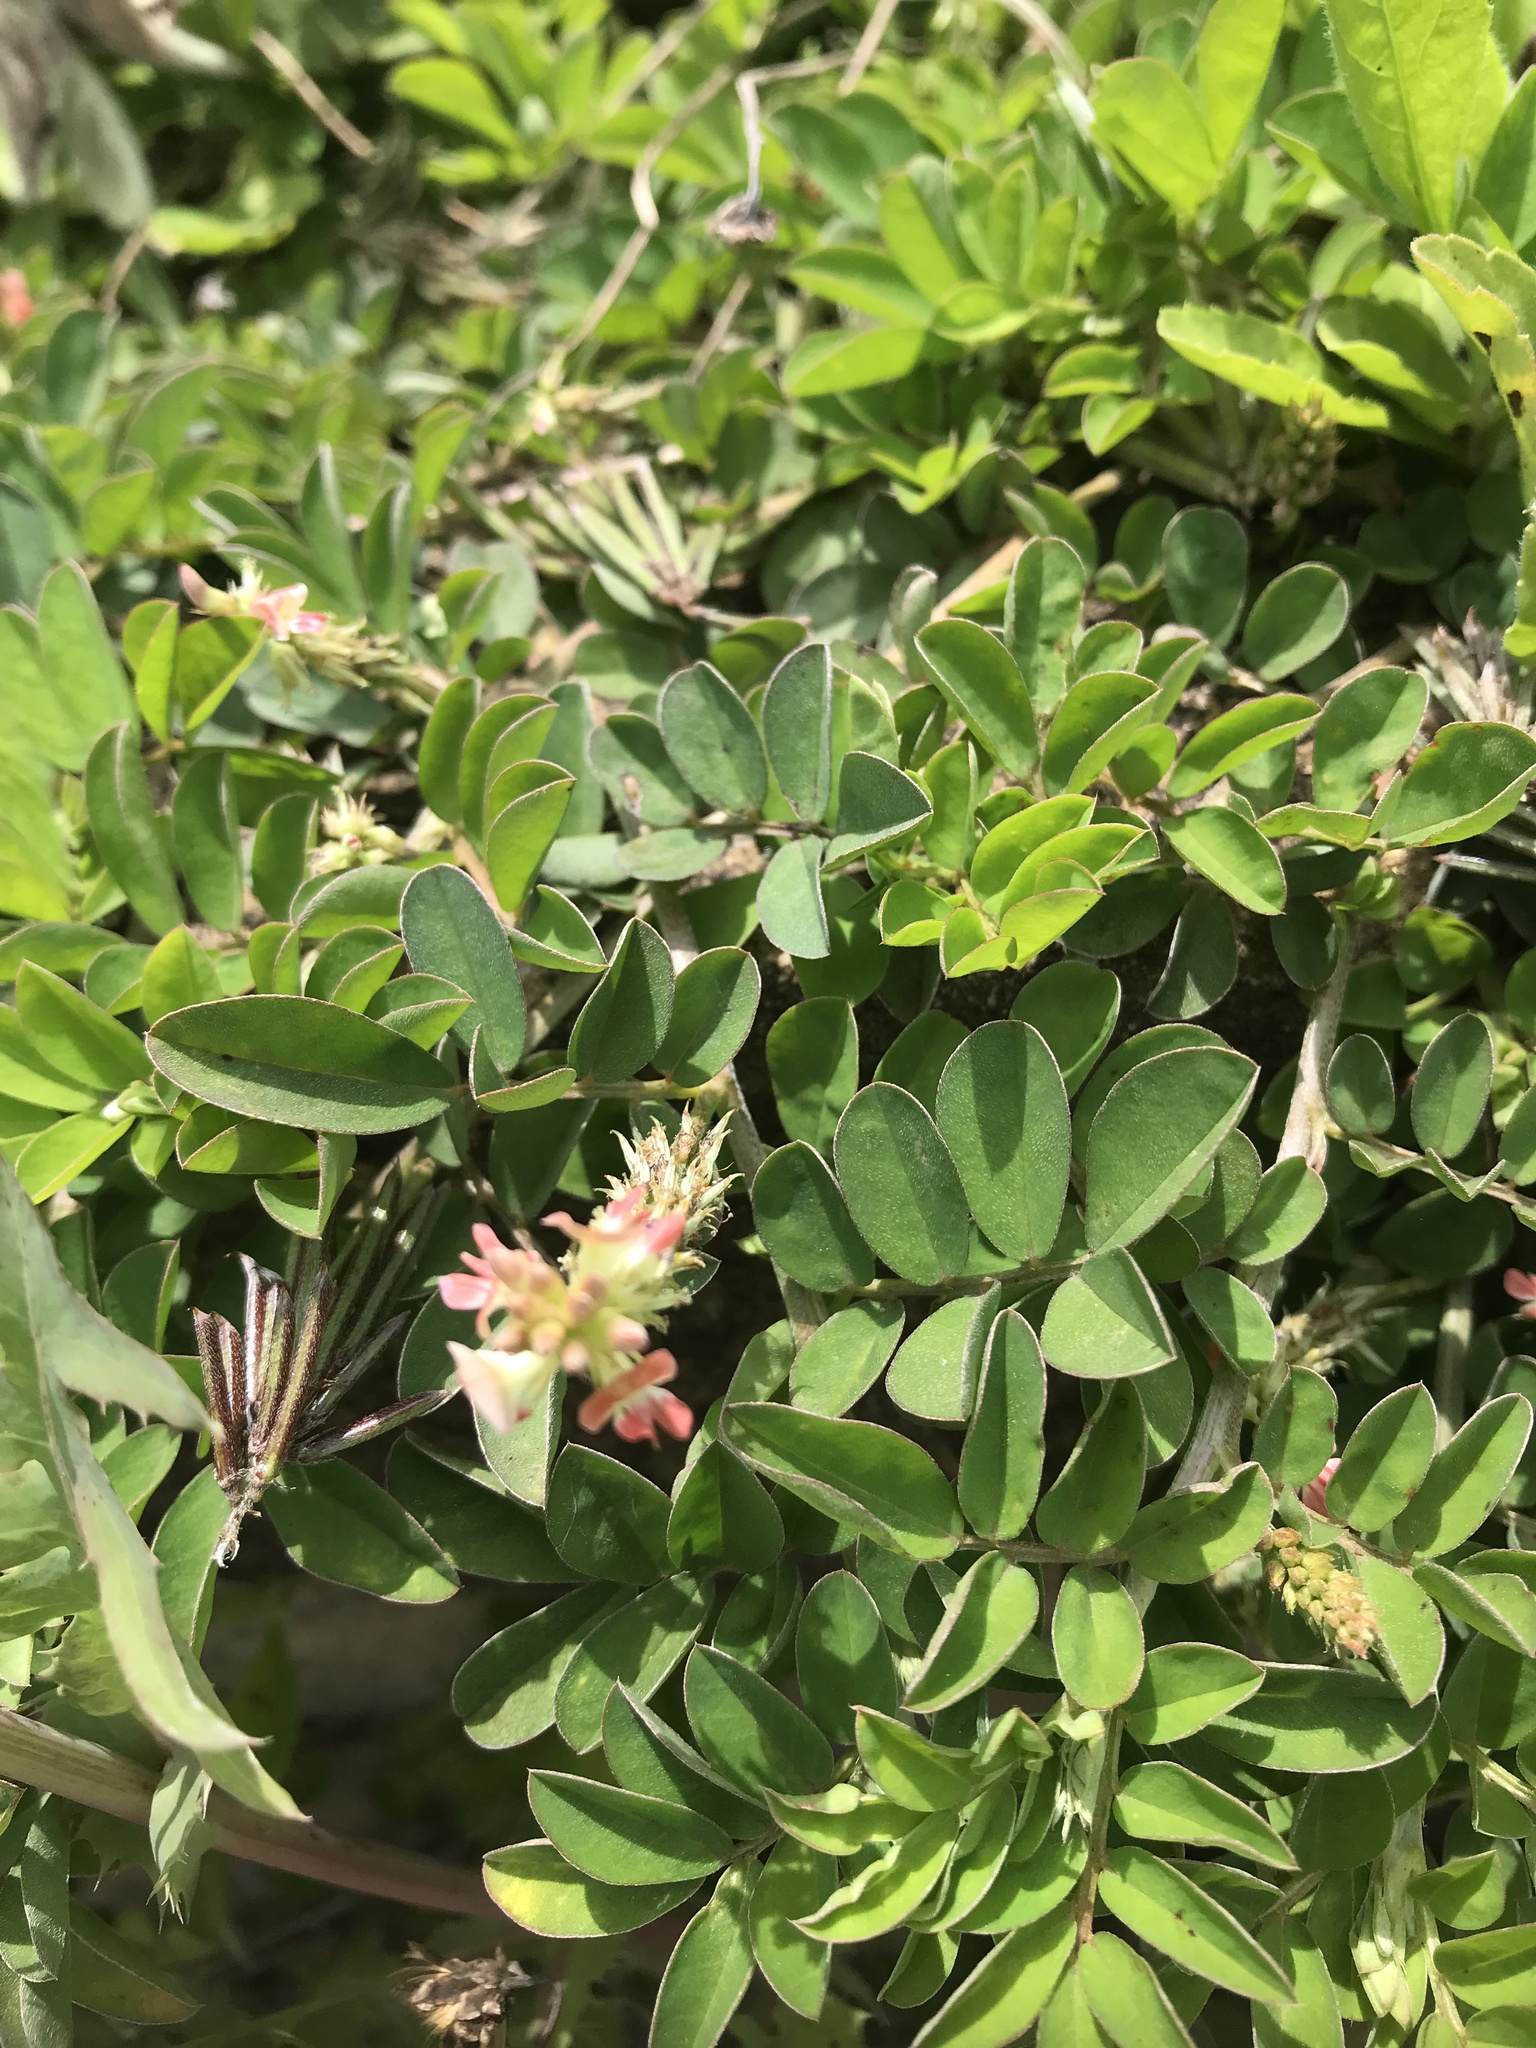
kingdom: Plantae
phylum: Tracheophyta
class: Magnoliopsida
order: Fabales
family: Fabaceae
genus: Indigofera
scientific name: Indigofera miniata
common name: Coast indigo
